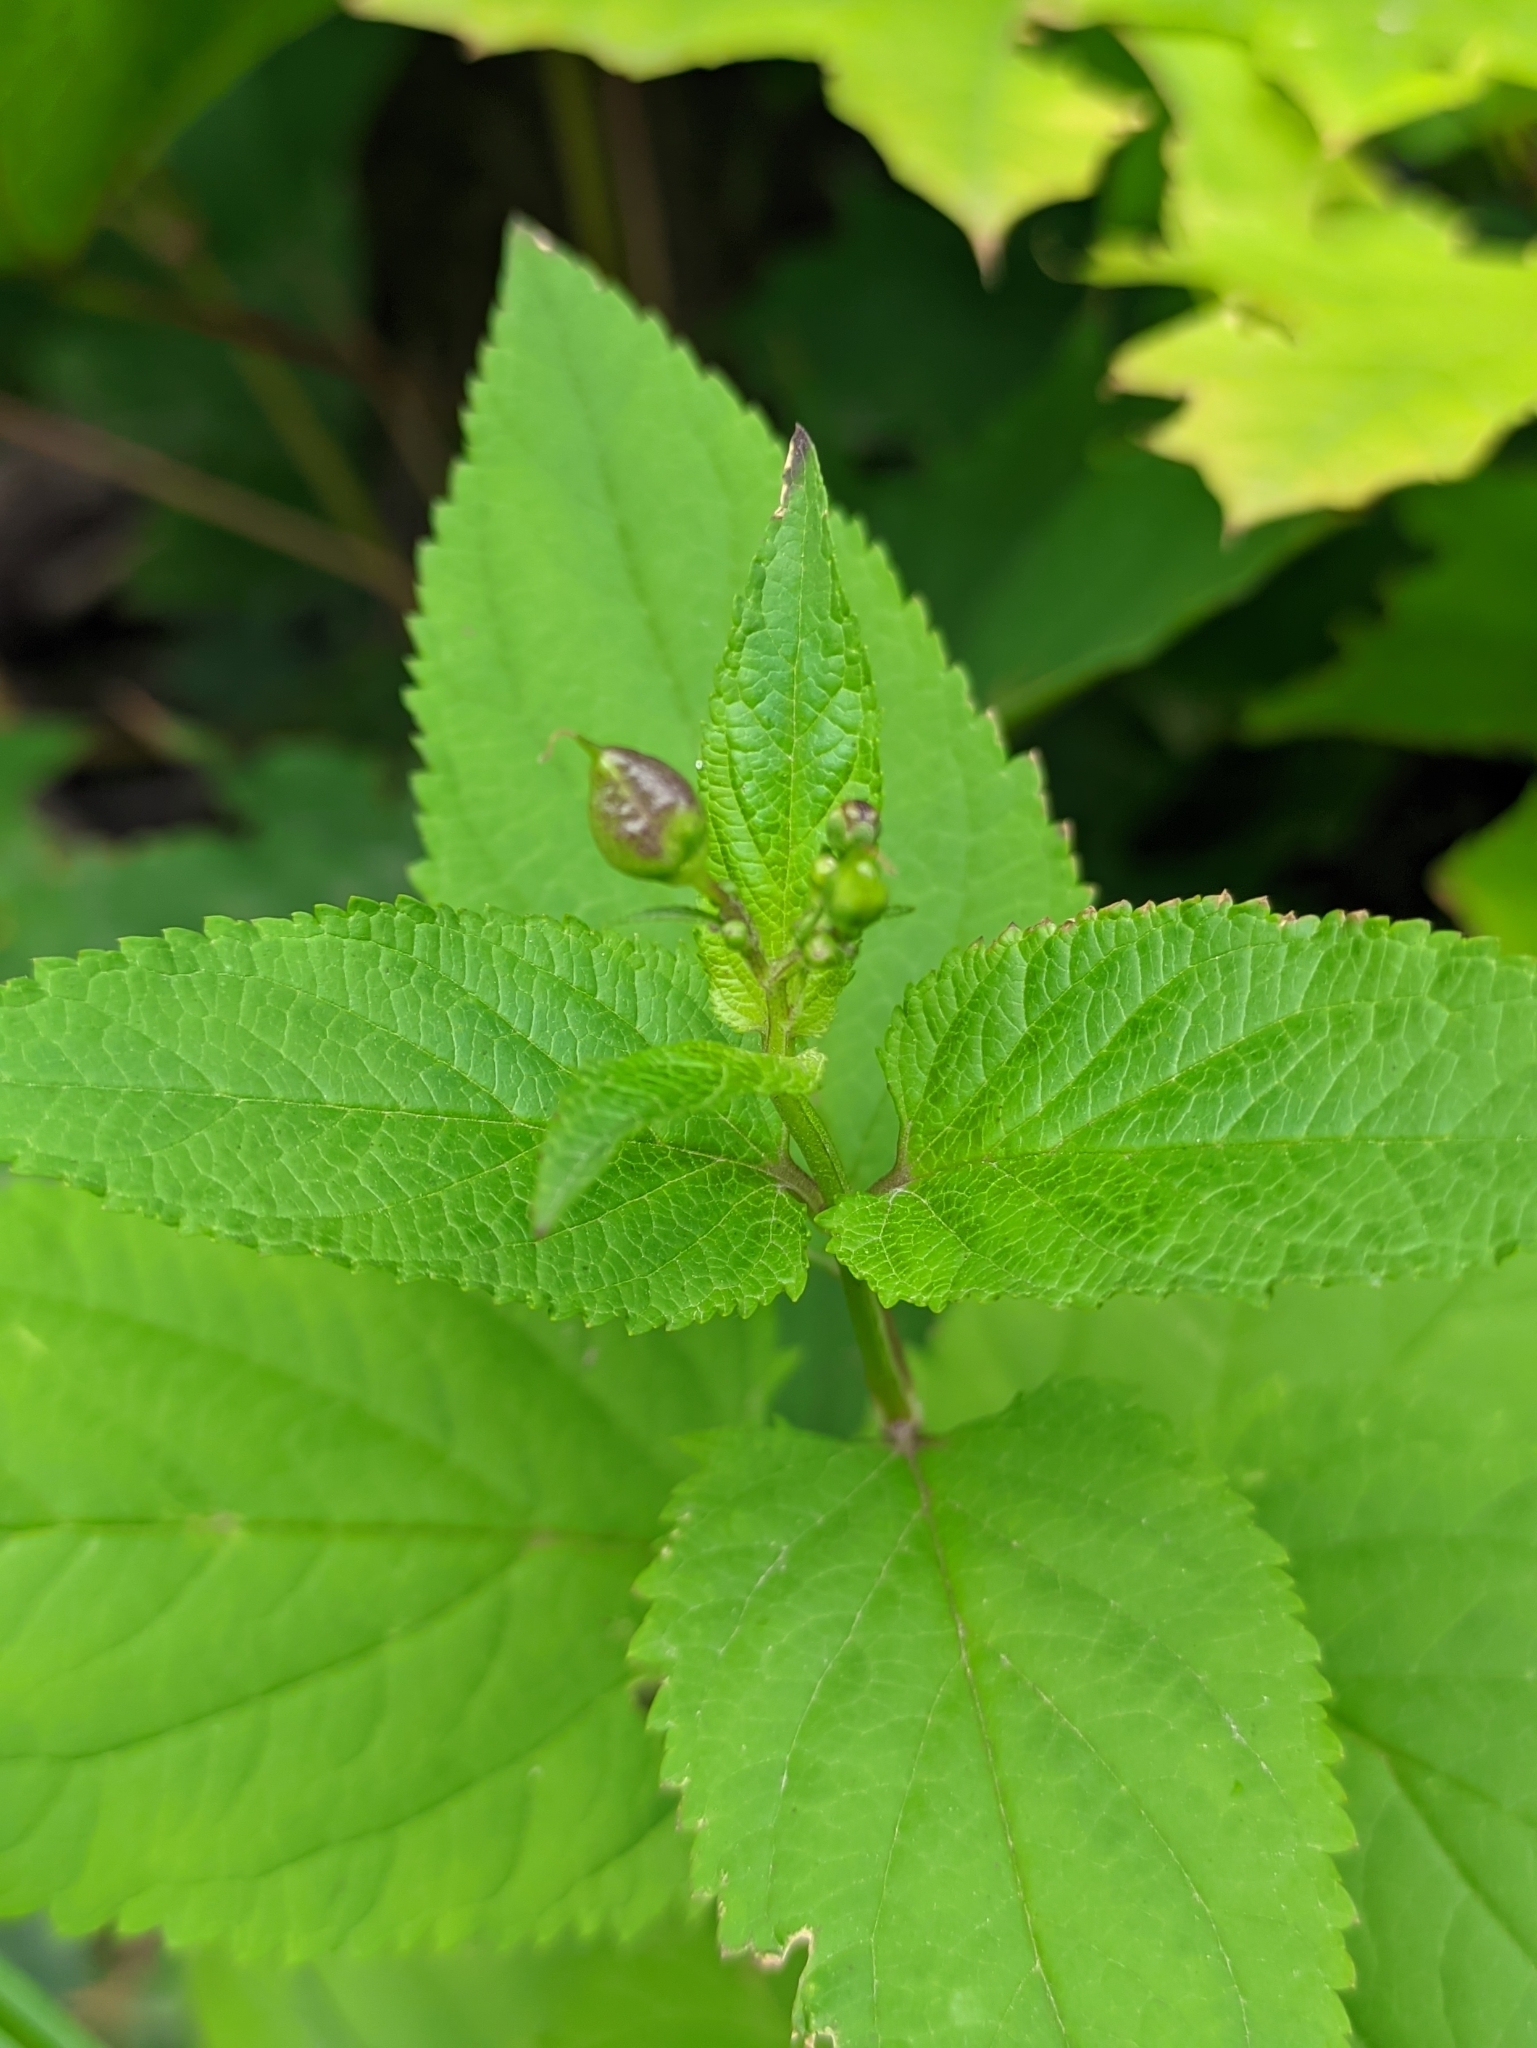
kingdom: Plantae
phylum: Tracheophyta
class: Magnoliopsida
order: Lamiales
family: Scrophulariaceae
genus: Scrophularia
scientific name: Scrophularia nodosa
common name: Common figwort
